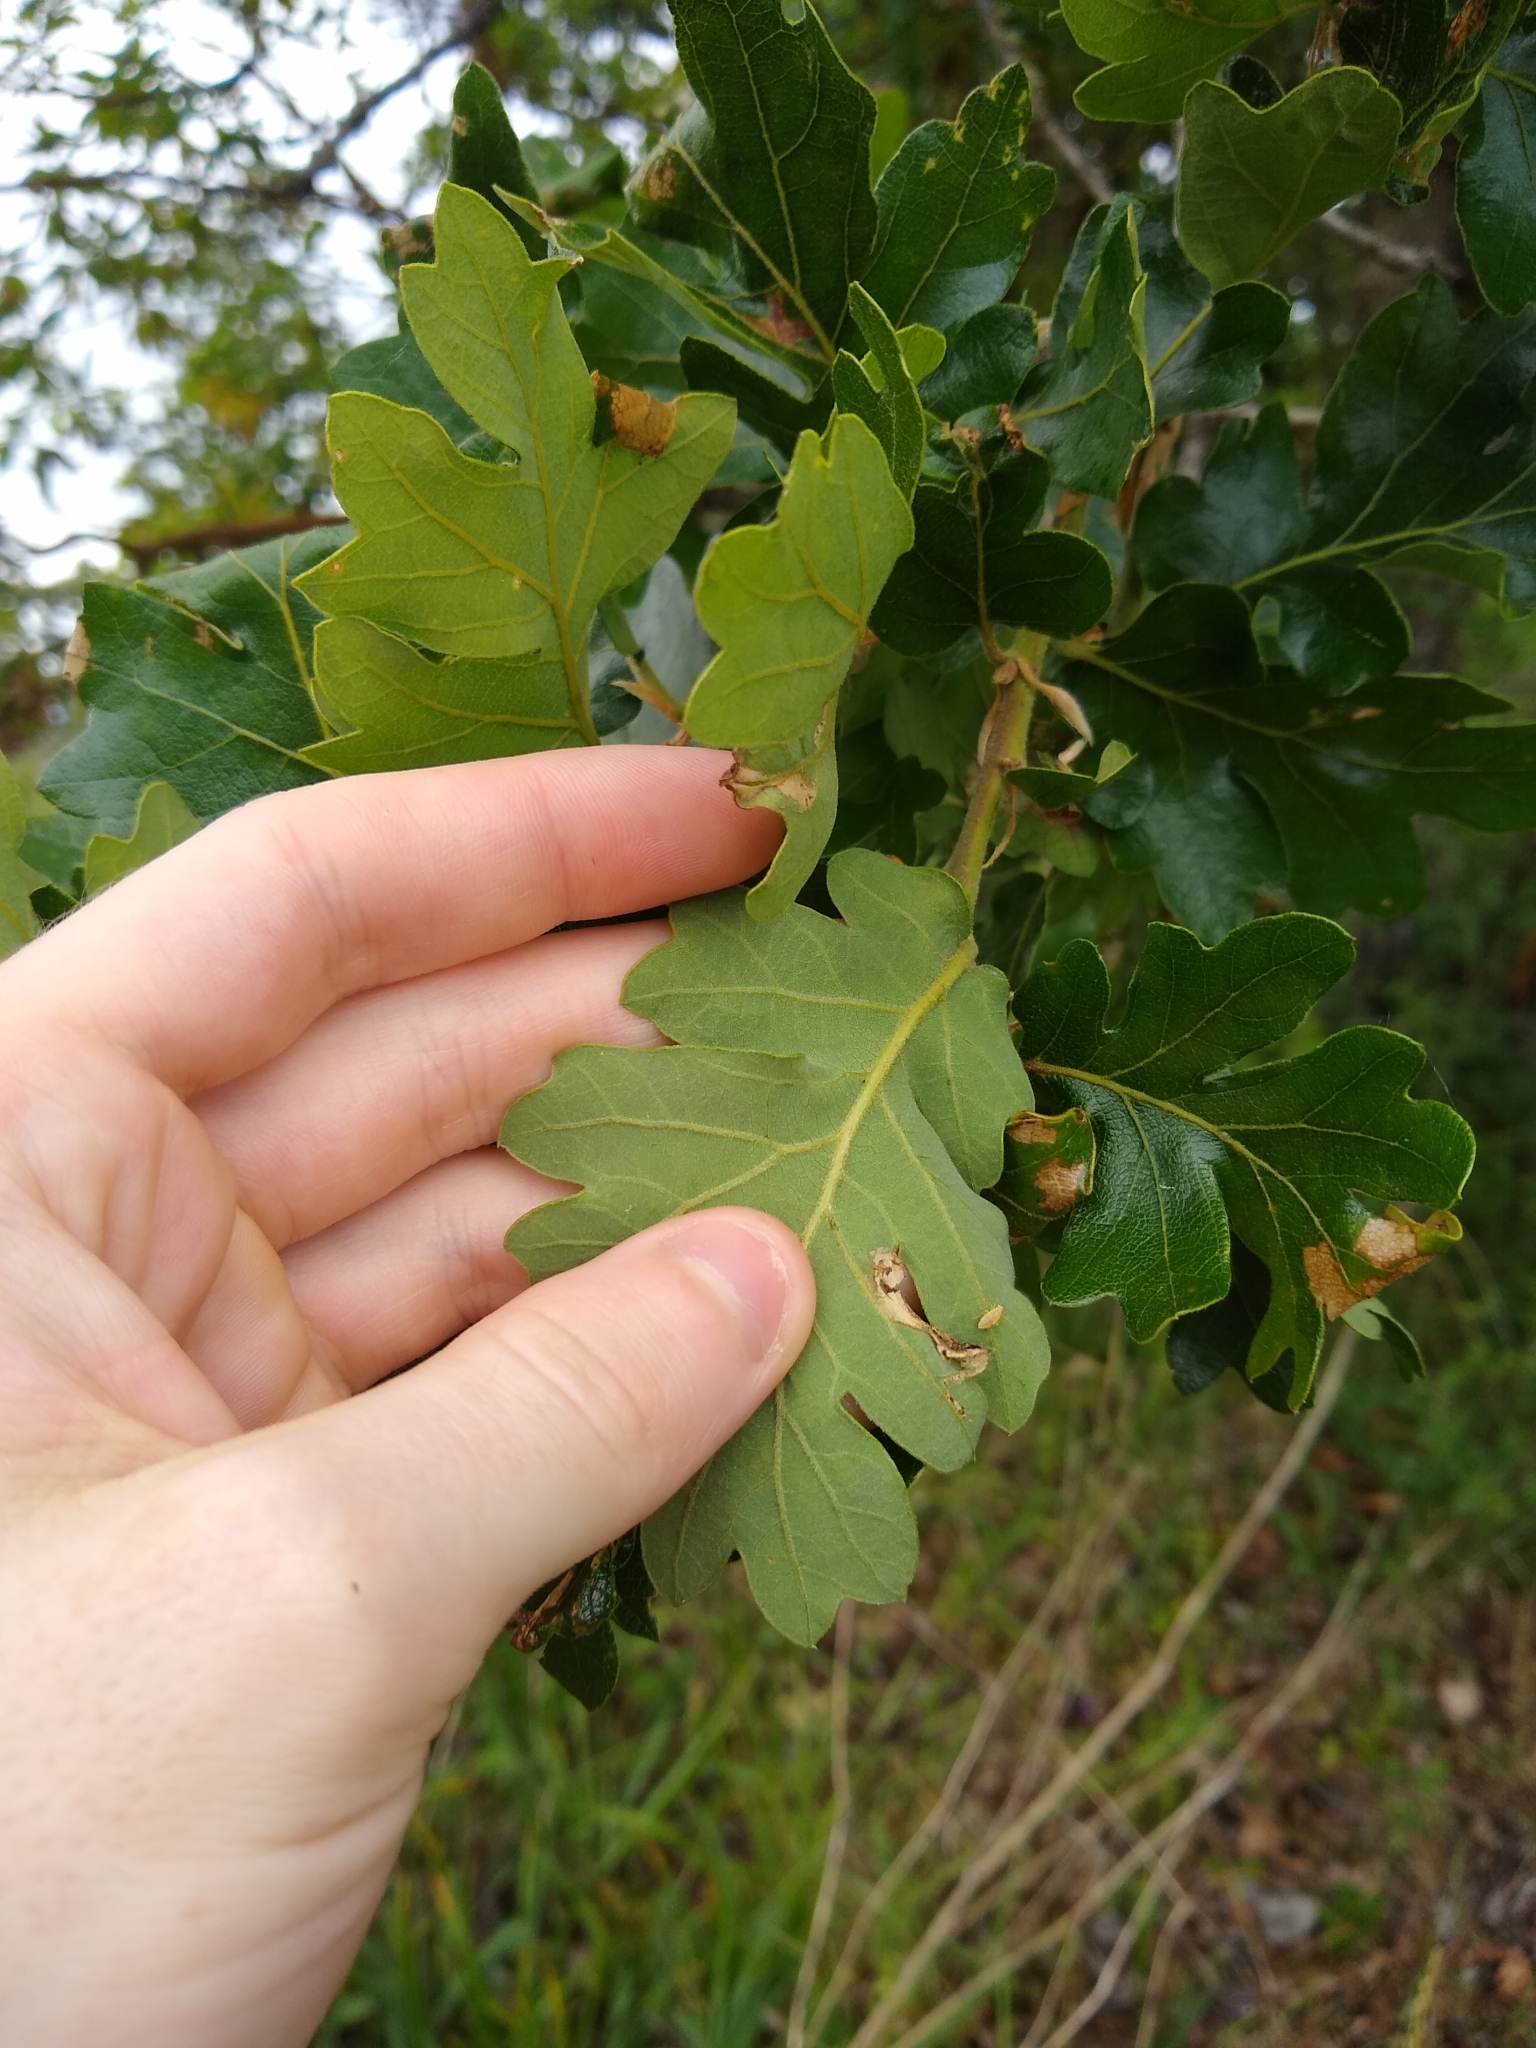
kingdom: Plantae
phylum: Tracheophyta
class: Magnoliopsida
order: Fagales
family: Fagaceae
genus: Quercus
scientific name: Quercus garryana
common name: Garry oak
